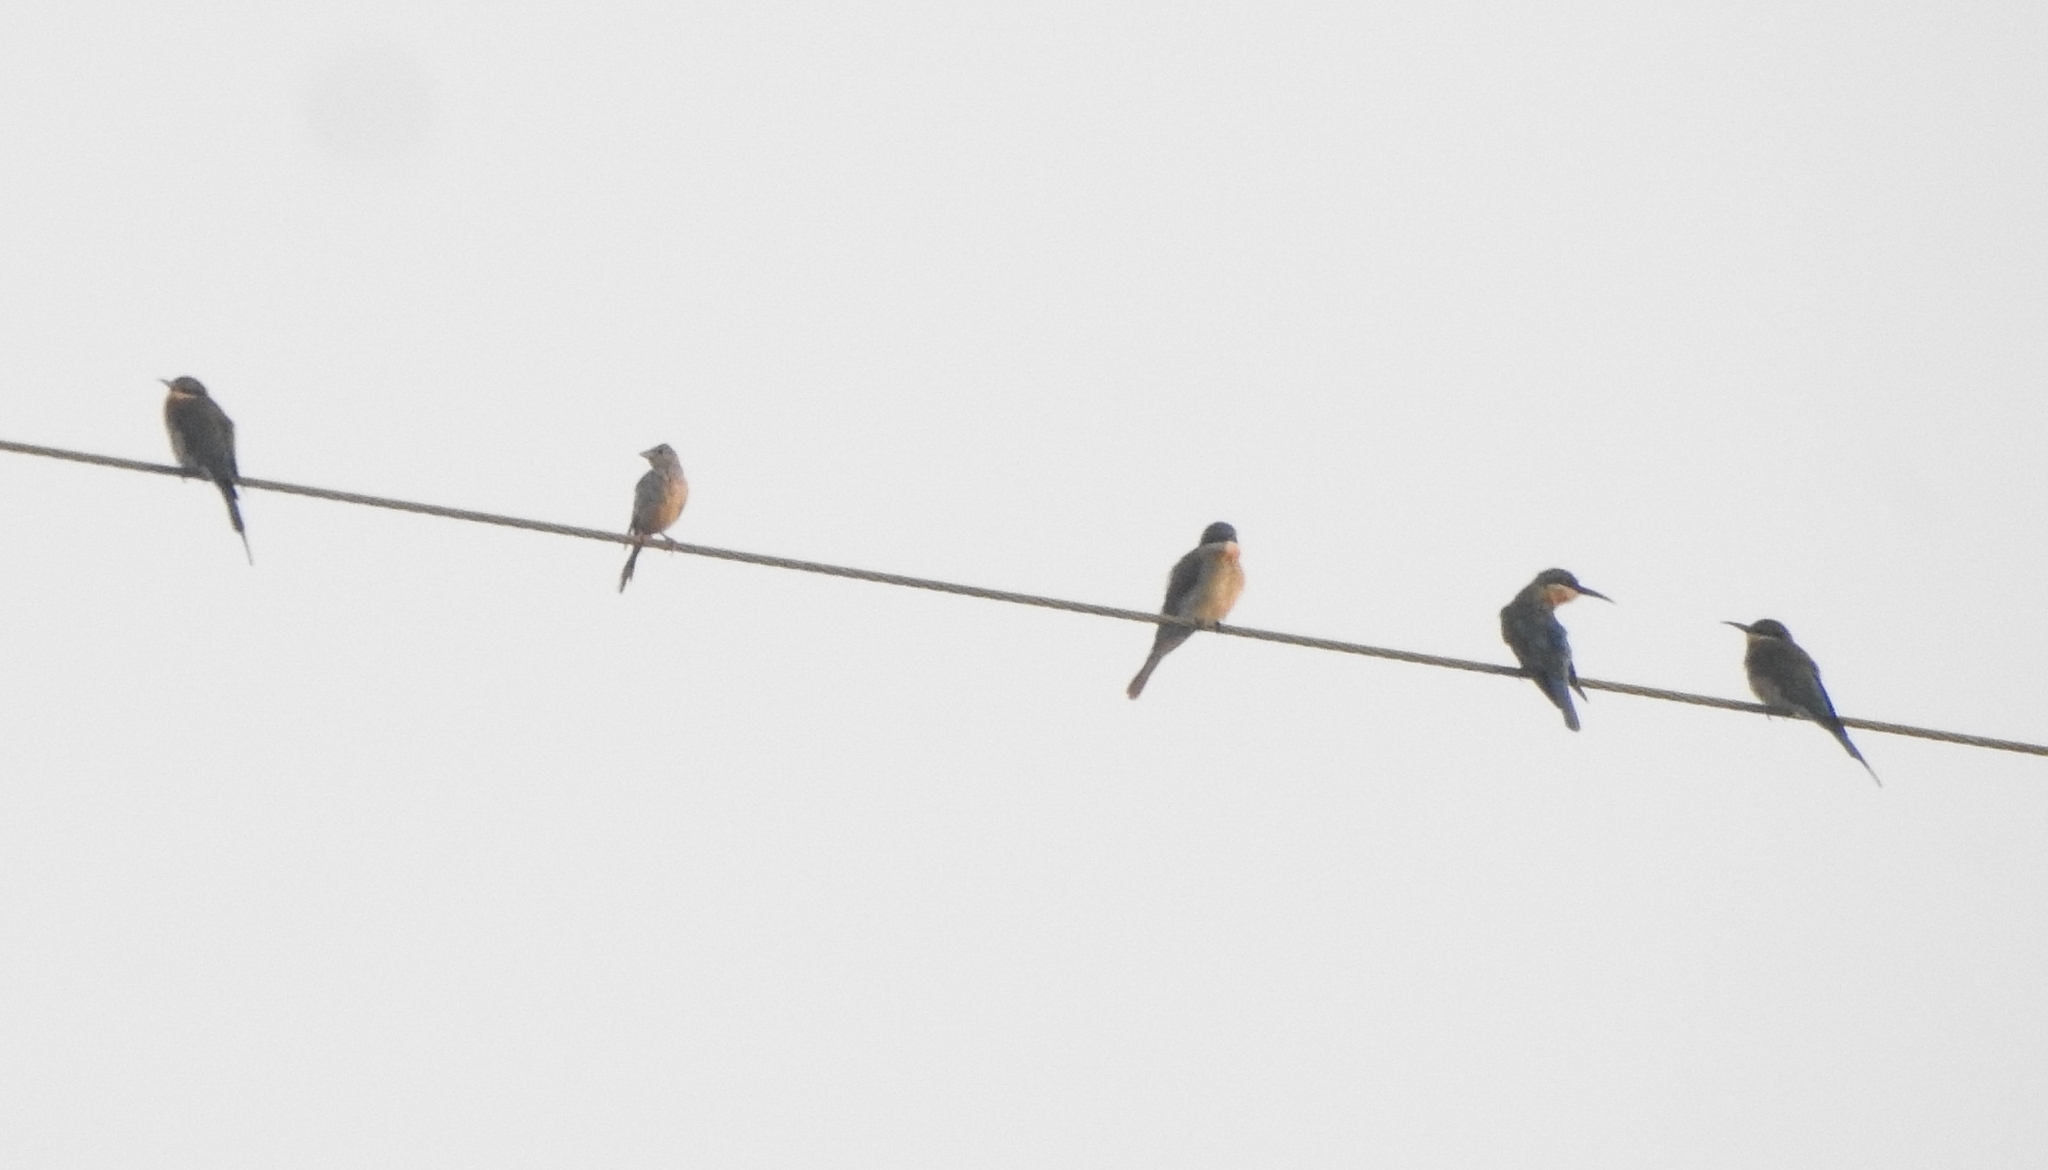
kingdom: Animalia
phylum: Chordata
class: Aves
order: Coraciiformes
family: Meropidae
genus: Merops
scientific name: Merops philippinus
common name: Blue-tailed bee-eater
